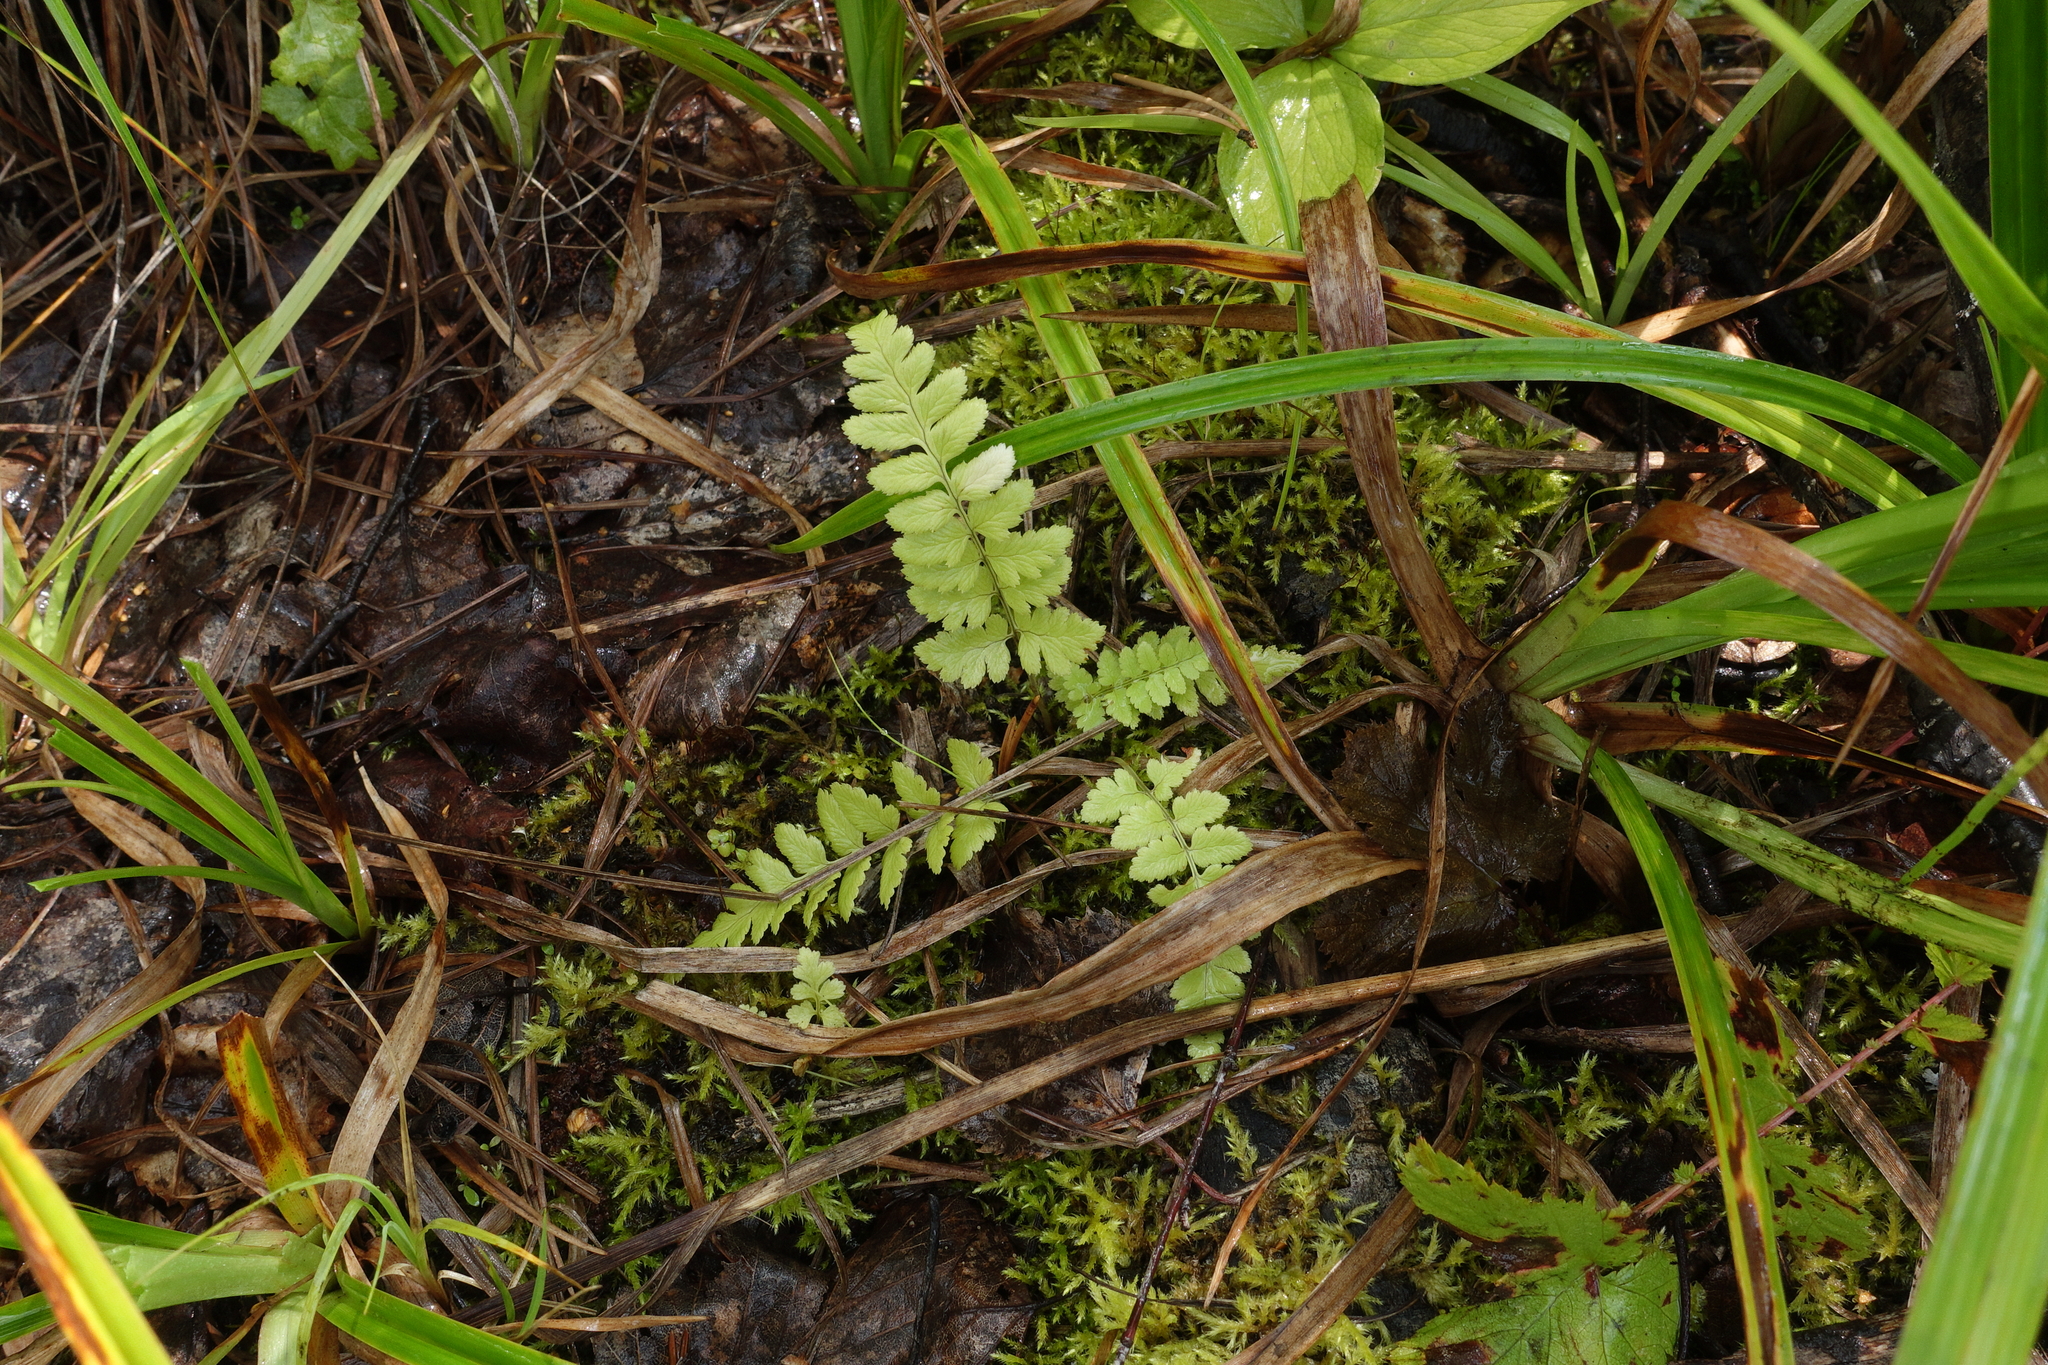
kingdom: Plantae
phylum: Tracheophyta
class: Polypodiopsida
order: Polypodiales
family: Dryopteridaceae
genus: Dryopteris
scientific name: Dryopteris cristata
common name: Crested wood fern
